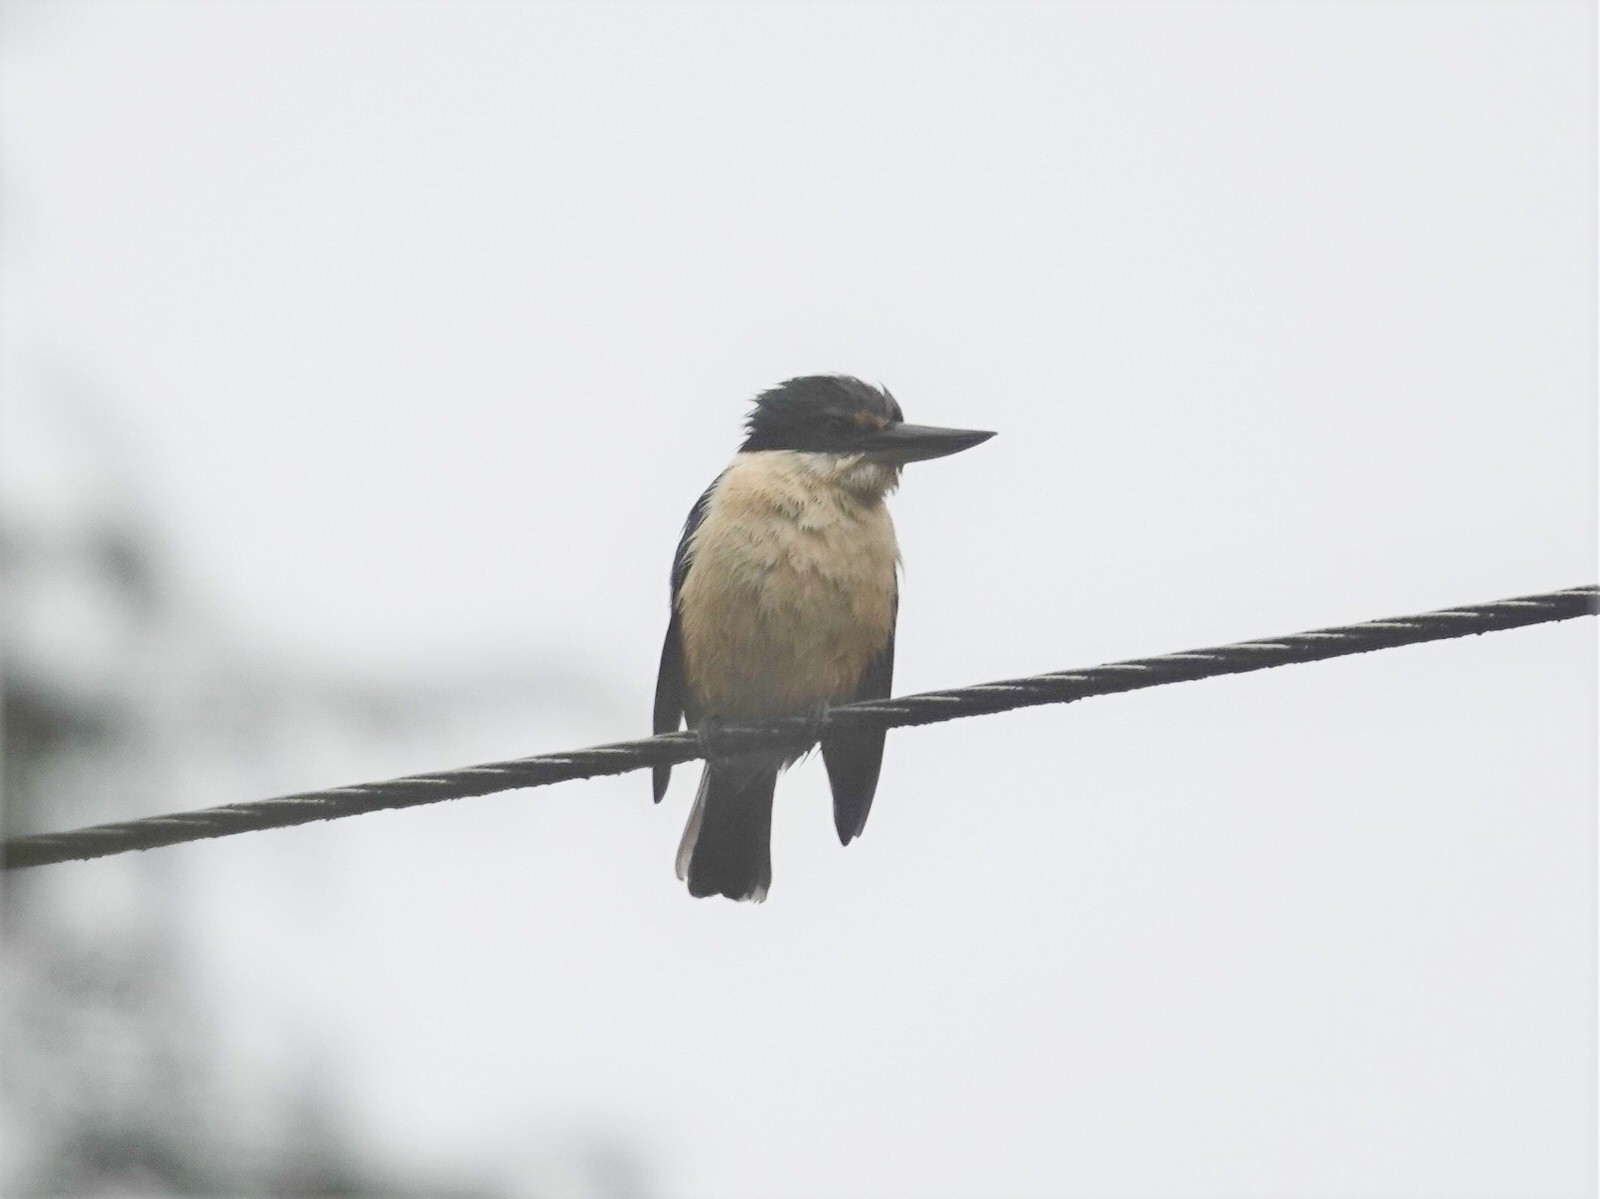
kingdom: Animalia
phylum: Chordata
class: Aves
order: Coraciiformes
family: Alcedinidae
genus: Todiramphus
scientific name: Todiramphus sanctus
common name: Sacred kingfisher
